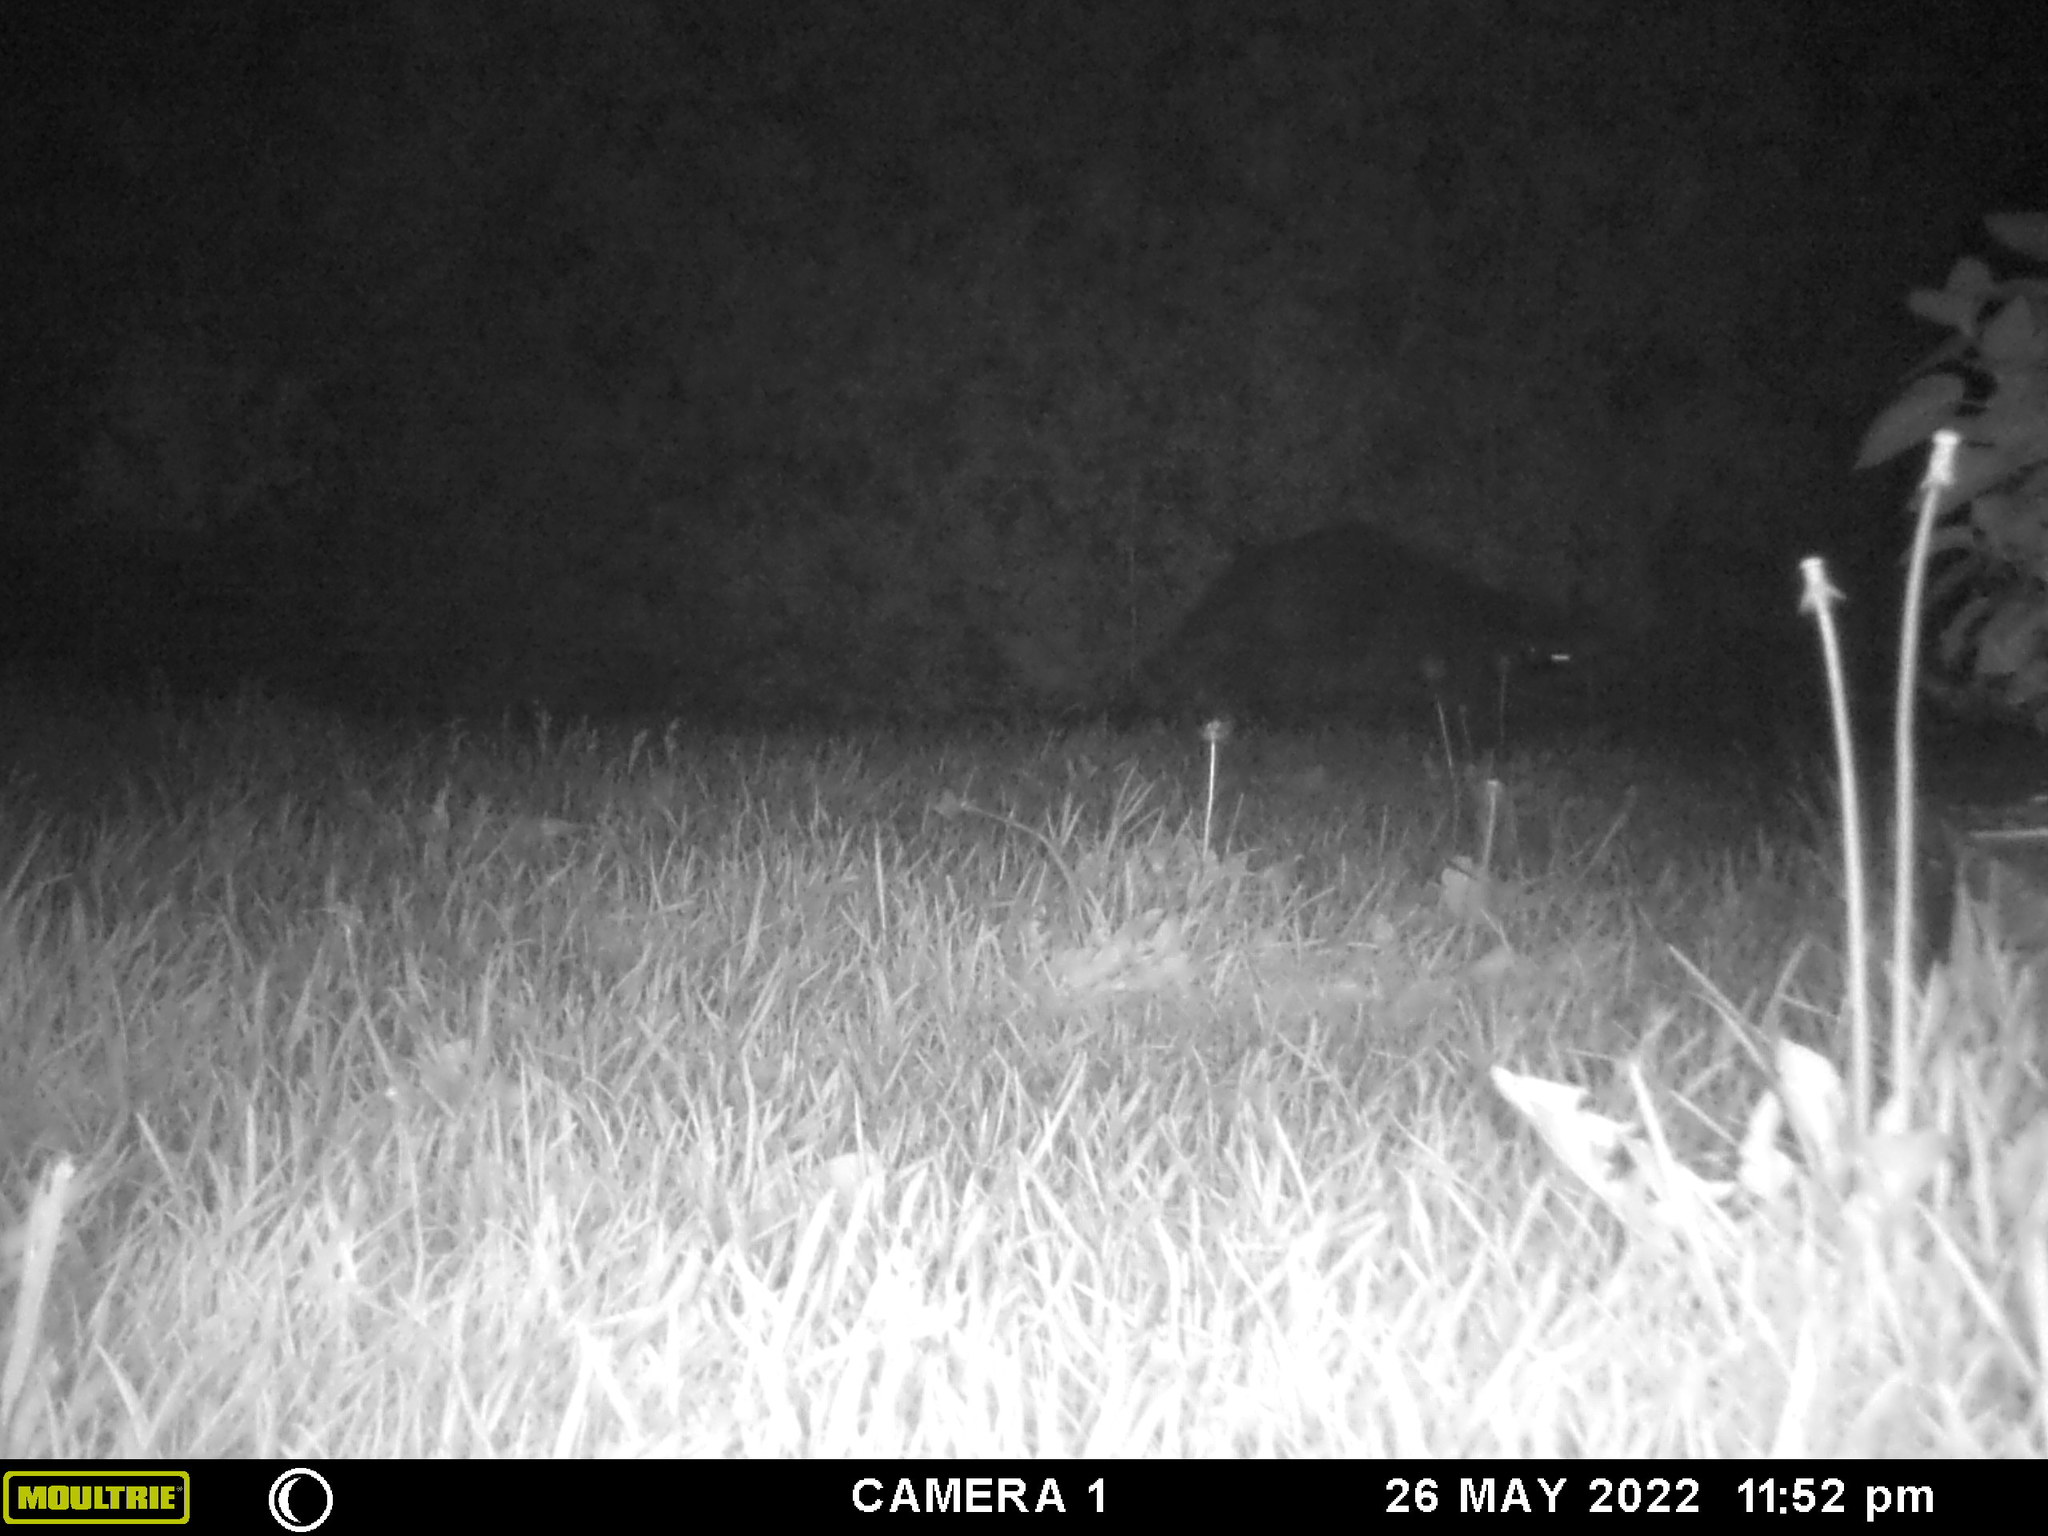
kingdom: Animalia
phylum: Chordata
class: Mammalia
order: Carnivora
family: Procyonidae
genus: Procyon
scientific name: Procyon lotor
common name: Raccoon
